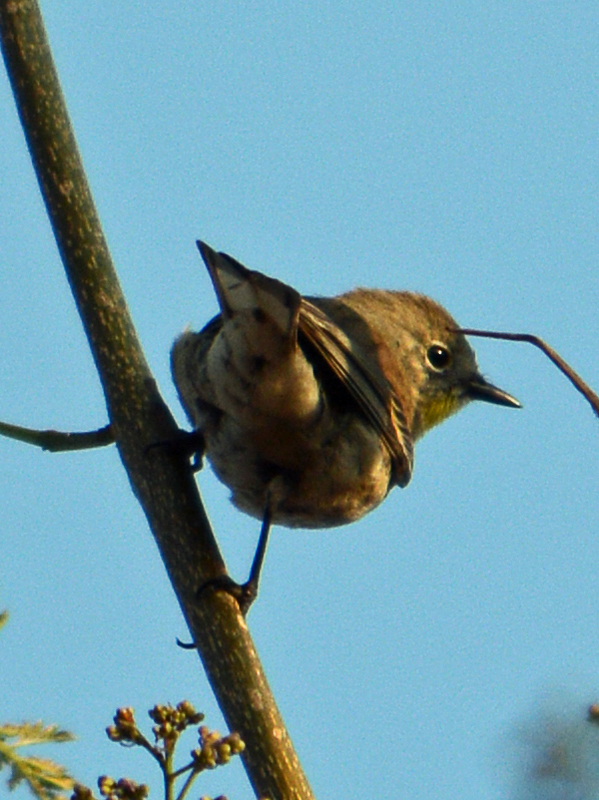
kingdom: Animalia
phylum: Chordata
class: Aves
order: Passeriformes
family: Parulidae
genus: Setophaga
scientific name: Setophaga auduboni
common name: Audubon's warbler
